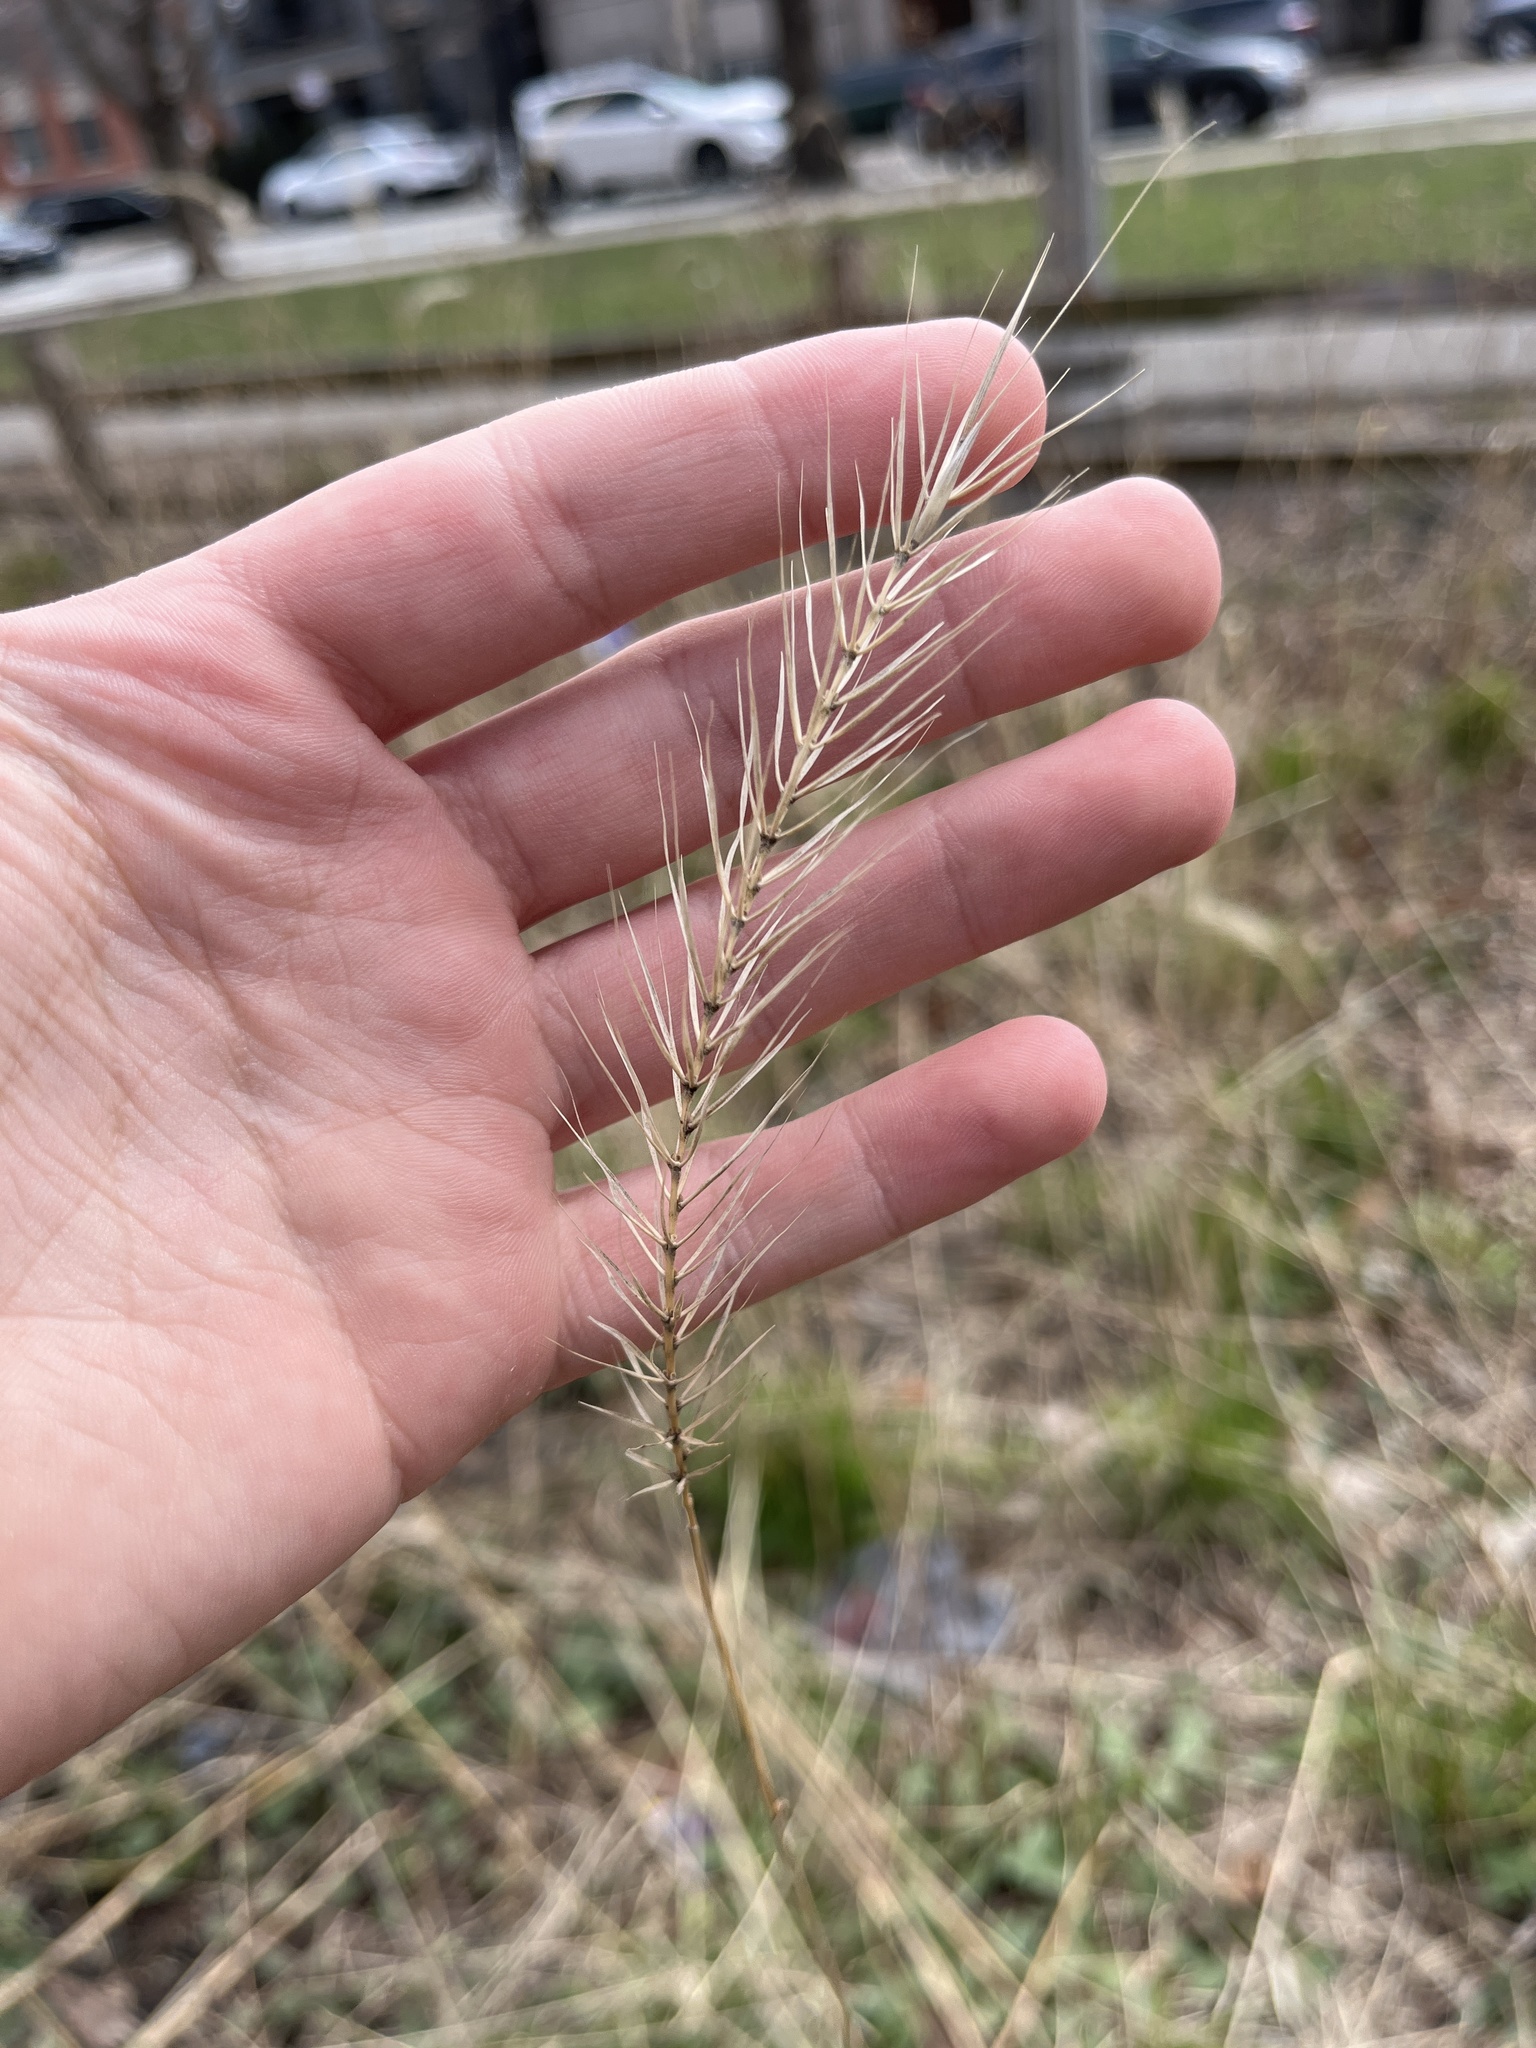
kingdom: Plantae
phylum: Tracheophyta
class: Liliopsida
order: Poales
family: Poaceae
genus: Elymus
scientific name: Elymus villosus
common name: Downy wild rye
